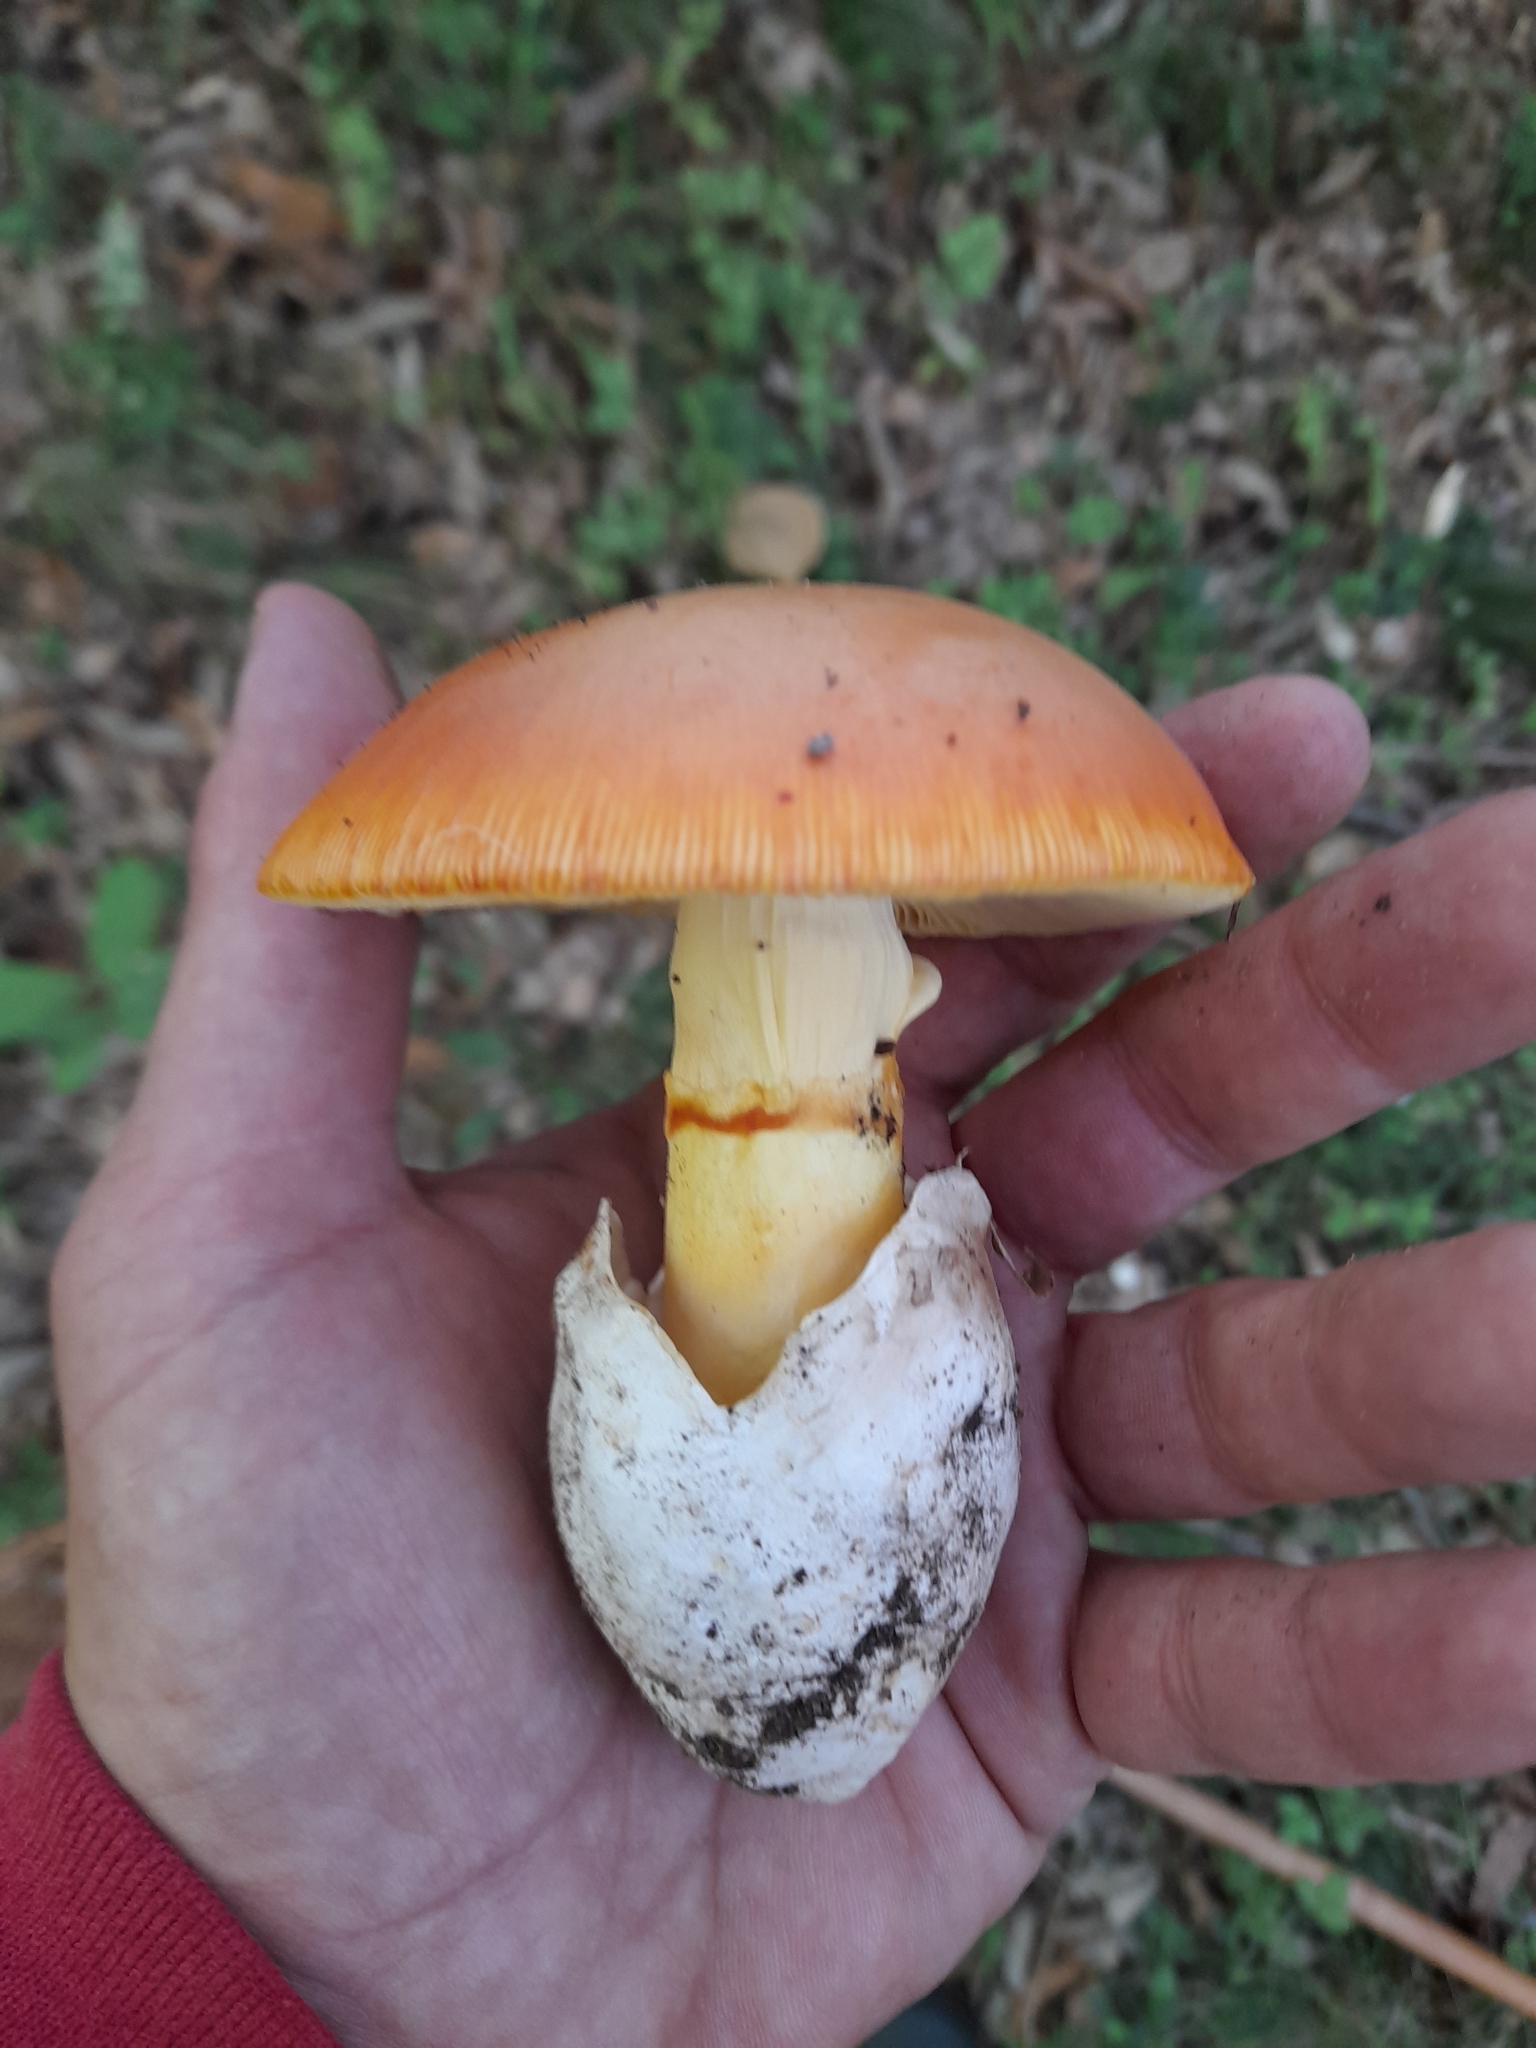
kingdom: Fungi
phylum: Basidiomycota
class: Agaricomycetes
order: Agaricales
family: Amanitaceae
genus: Amanita
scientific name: Amanita caesarea
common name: Caesar's amanita
